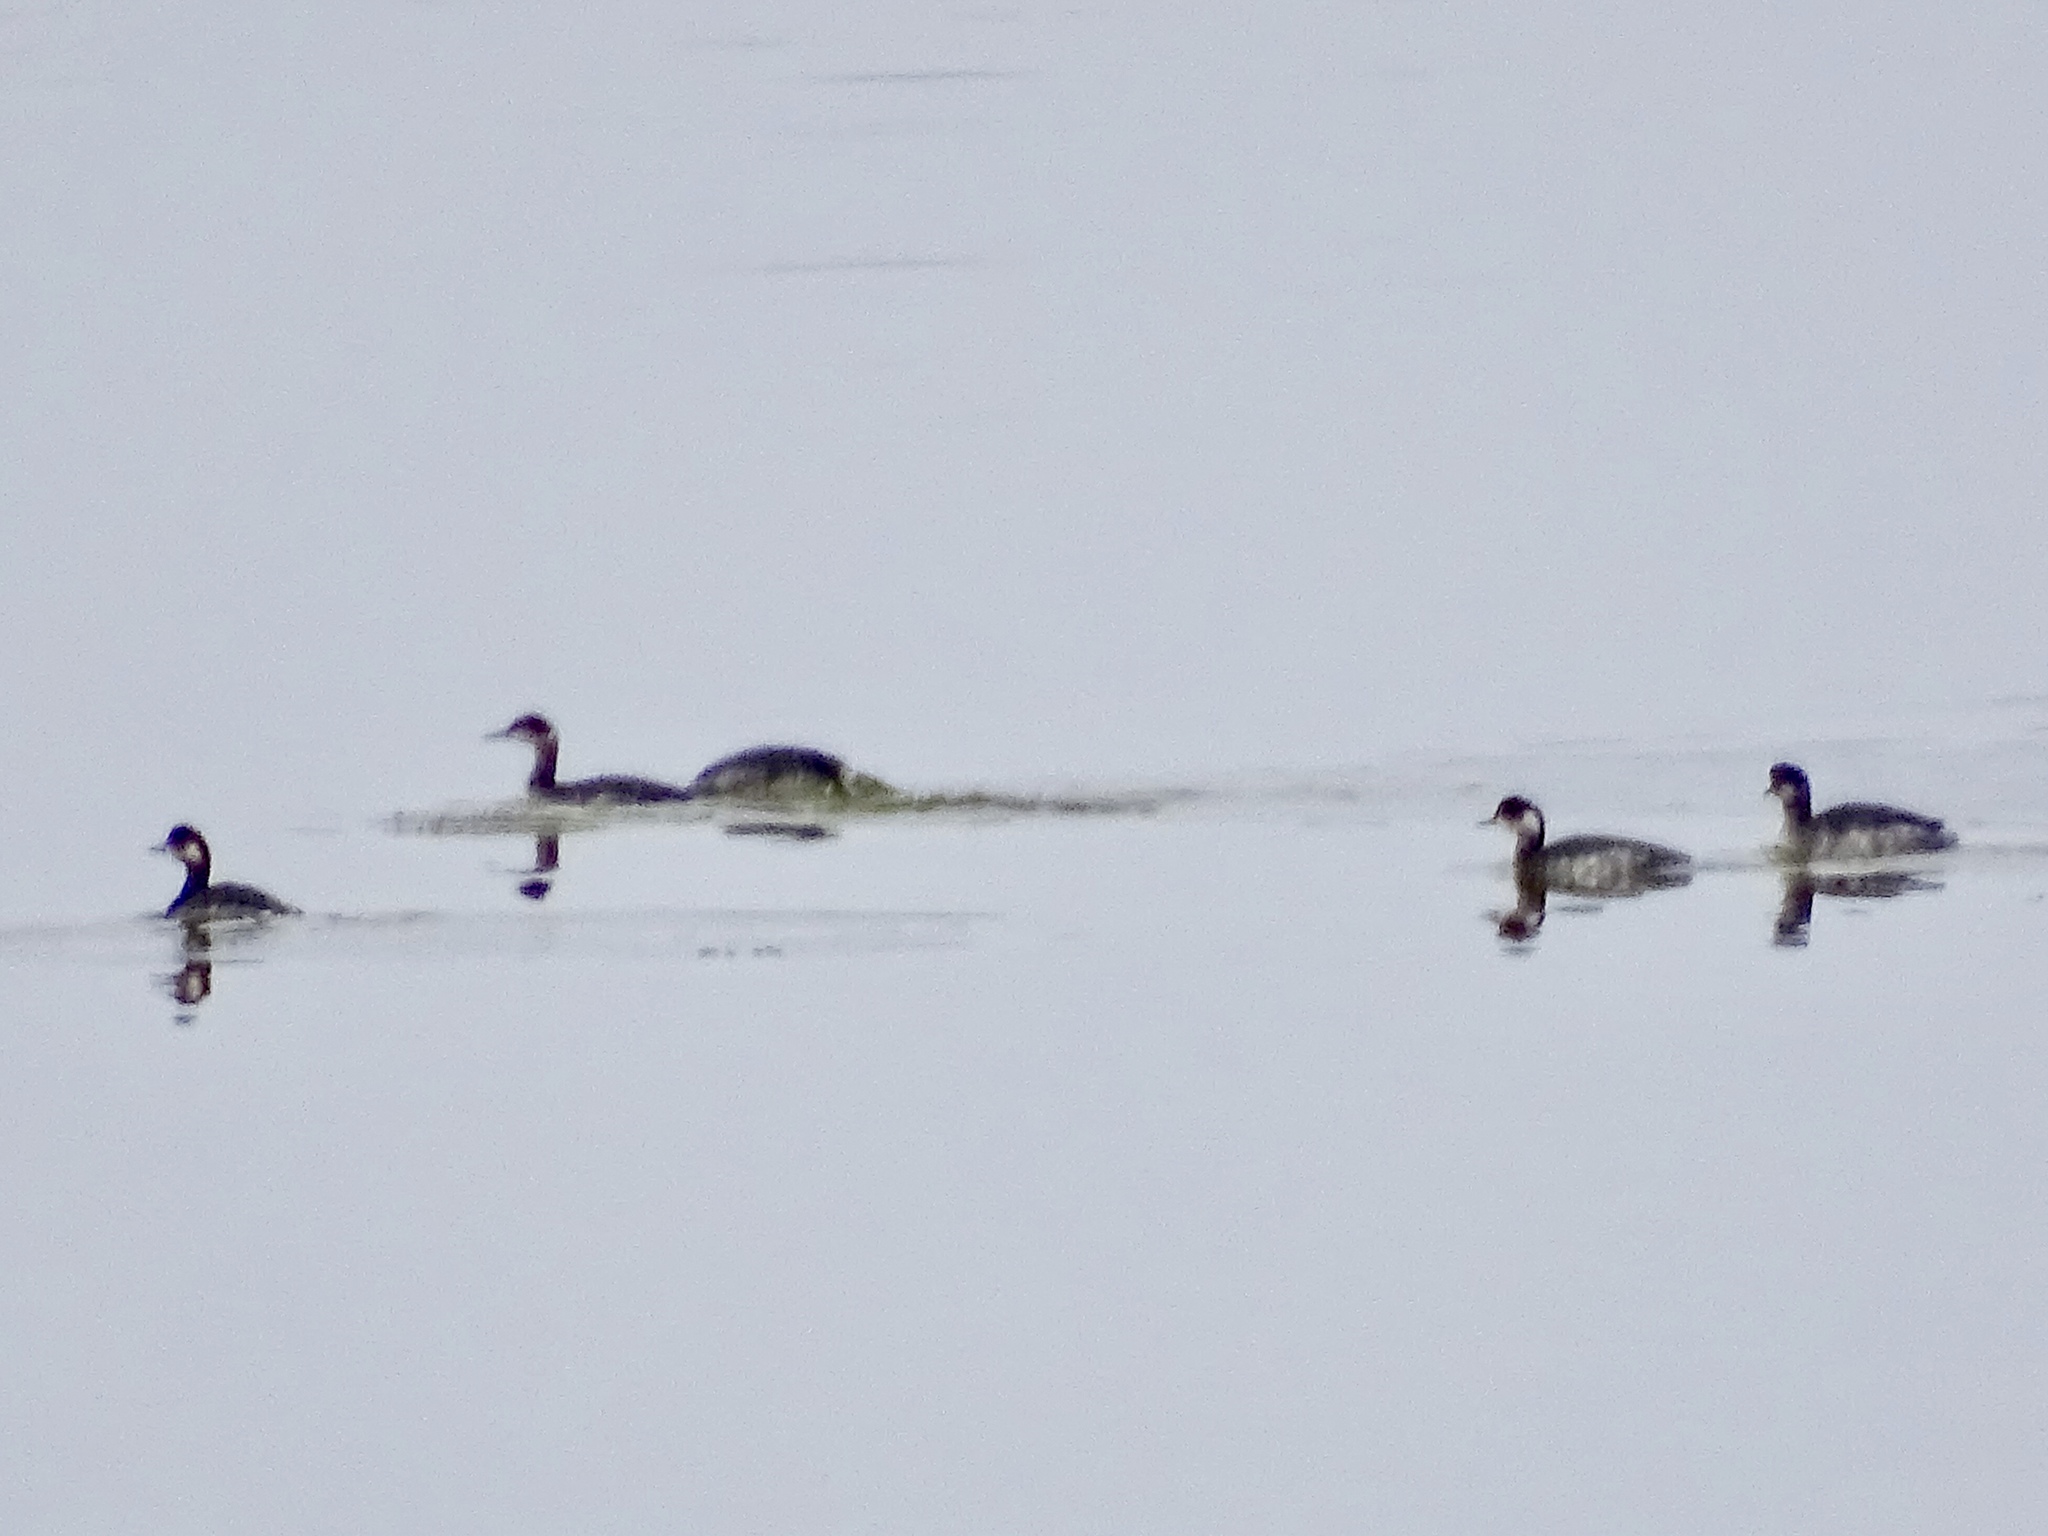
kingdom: Animalia
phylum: Chordata
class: Aves
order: Podicipediformes
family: Podicipedidae
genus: Podiceps
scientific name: Podiceps nigricollis
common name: Black-necked grebe
